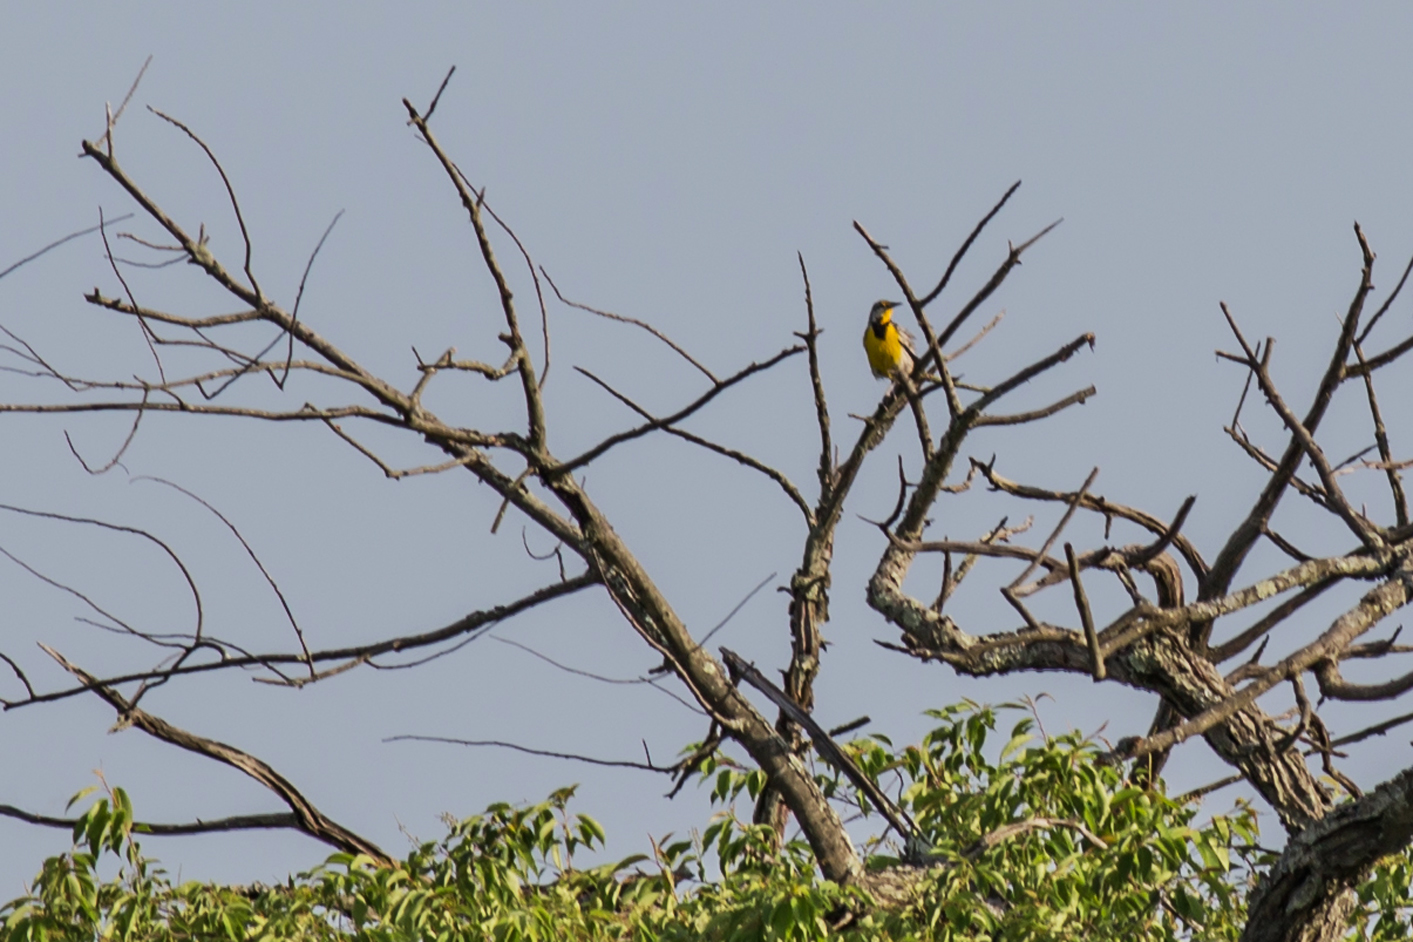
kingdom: Animalia
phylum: Chordata
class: Aves
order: Passeriformes
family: Icteridae
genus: Sturnella
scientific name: Sturnella magna
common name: Eastern meadowlark
